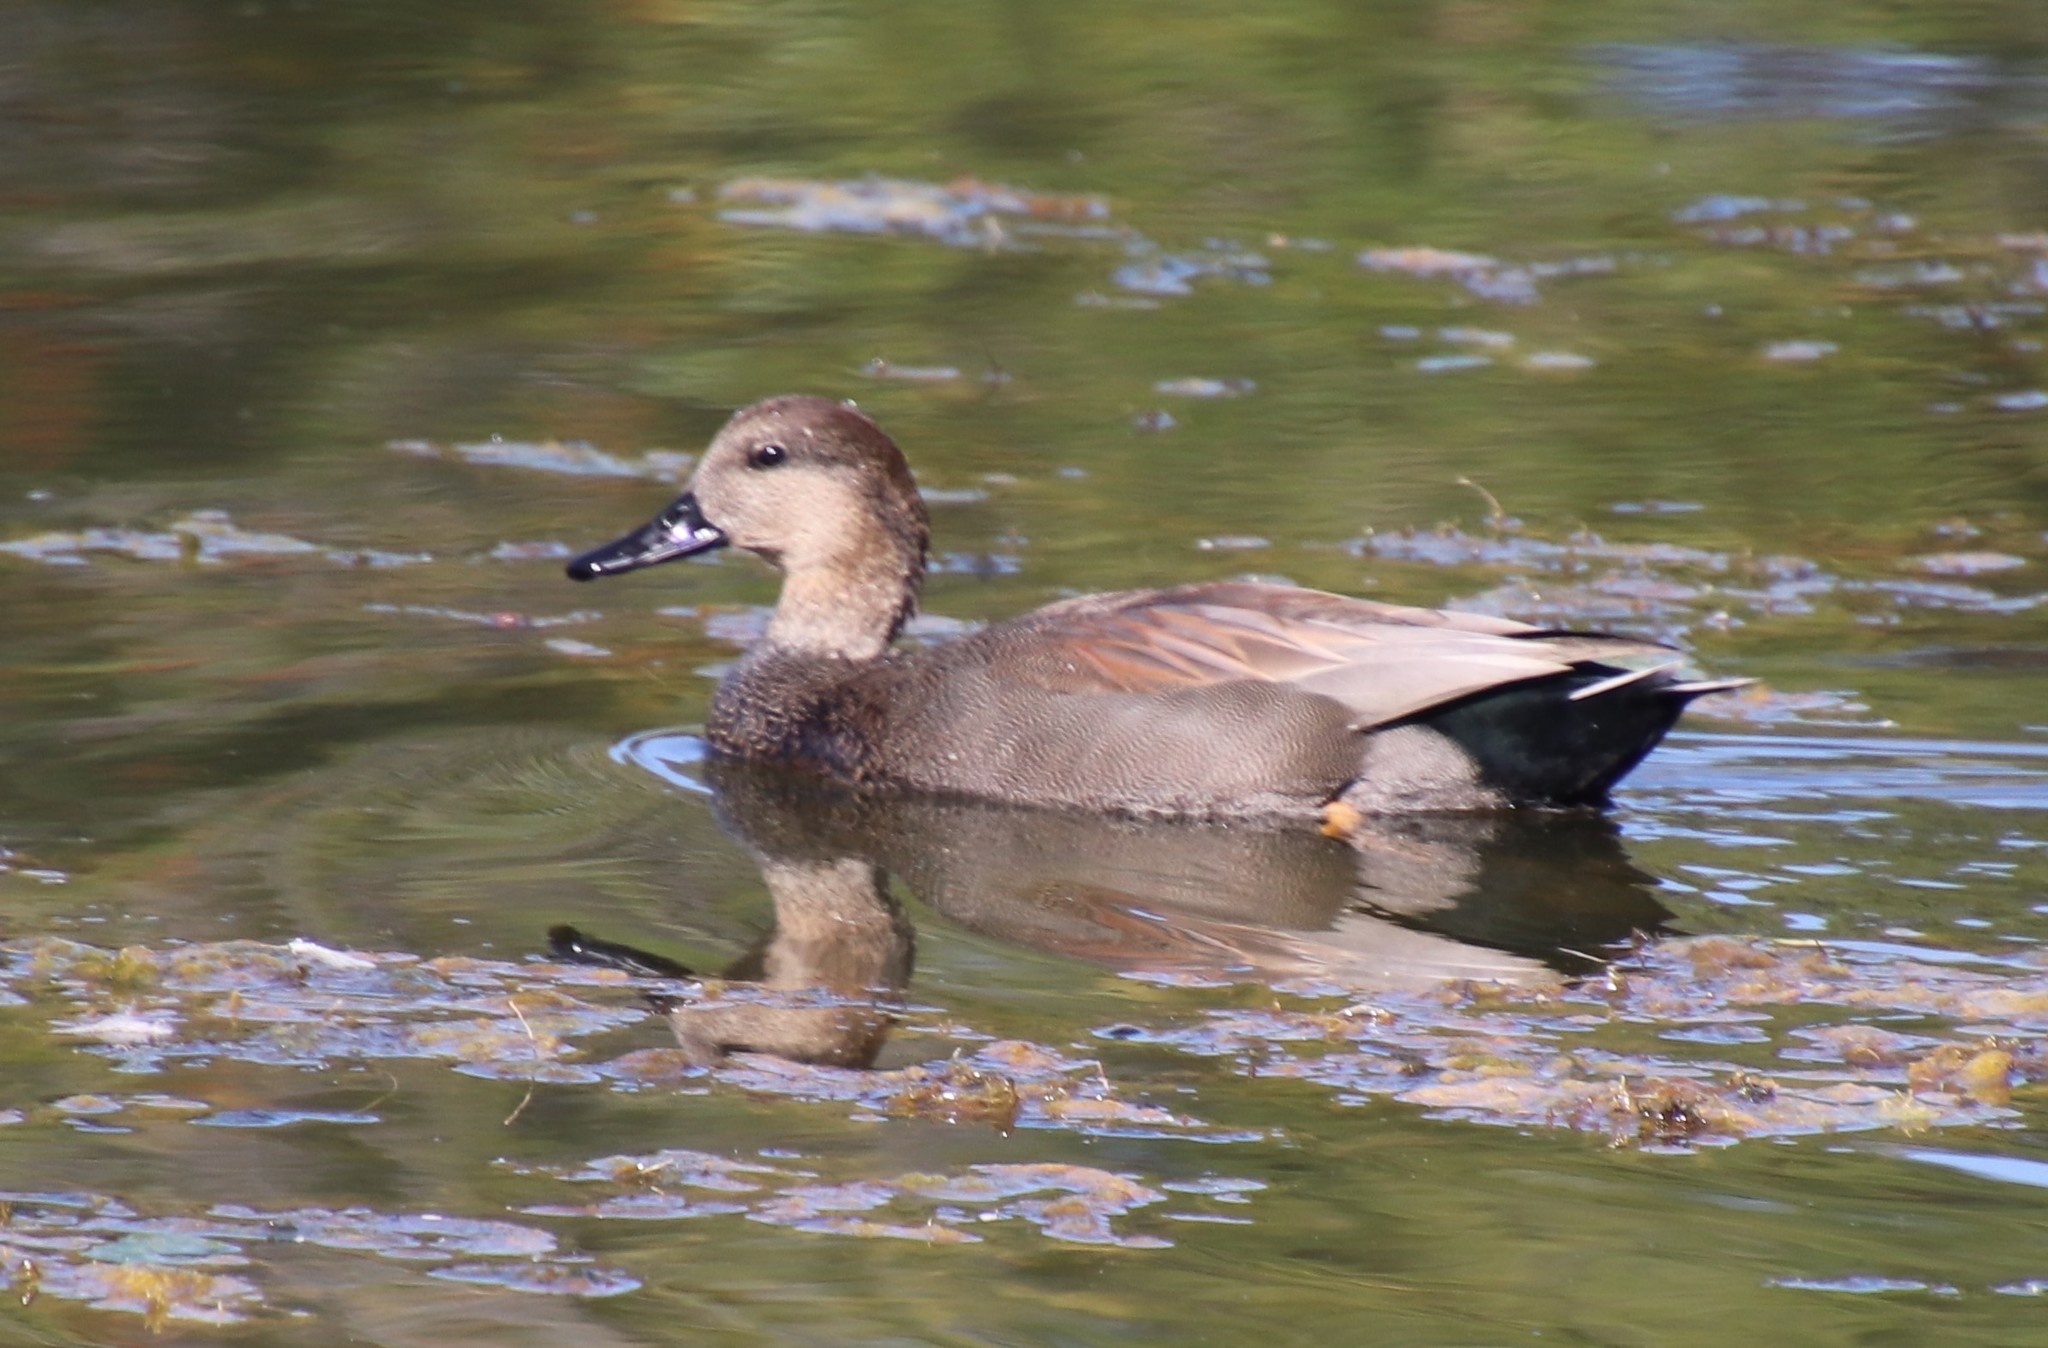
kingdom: Animalia
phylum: Chordata
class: Aves
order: Anseriformes
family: Anatidae
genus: Mareca
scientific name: Mareca strepera
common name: Gadwall
